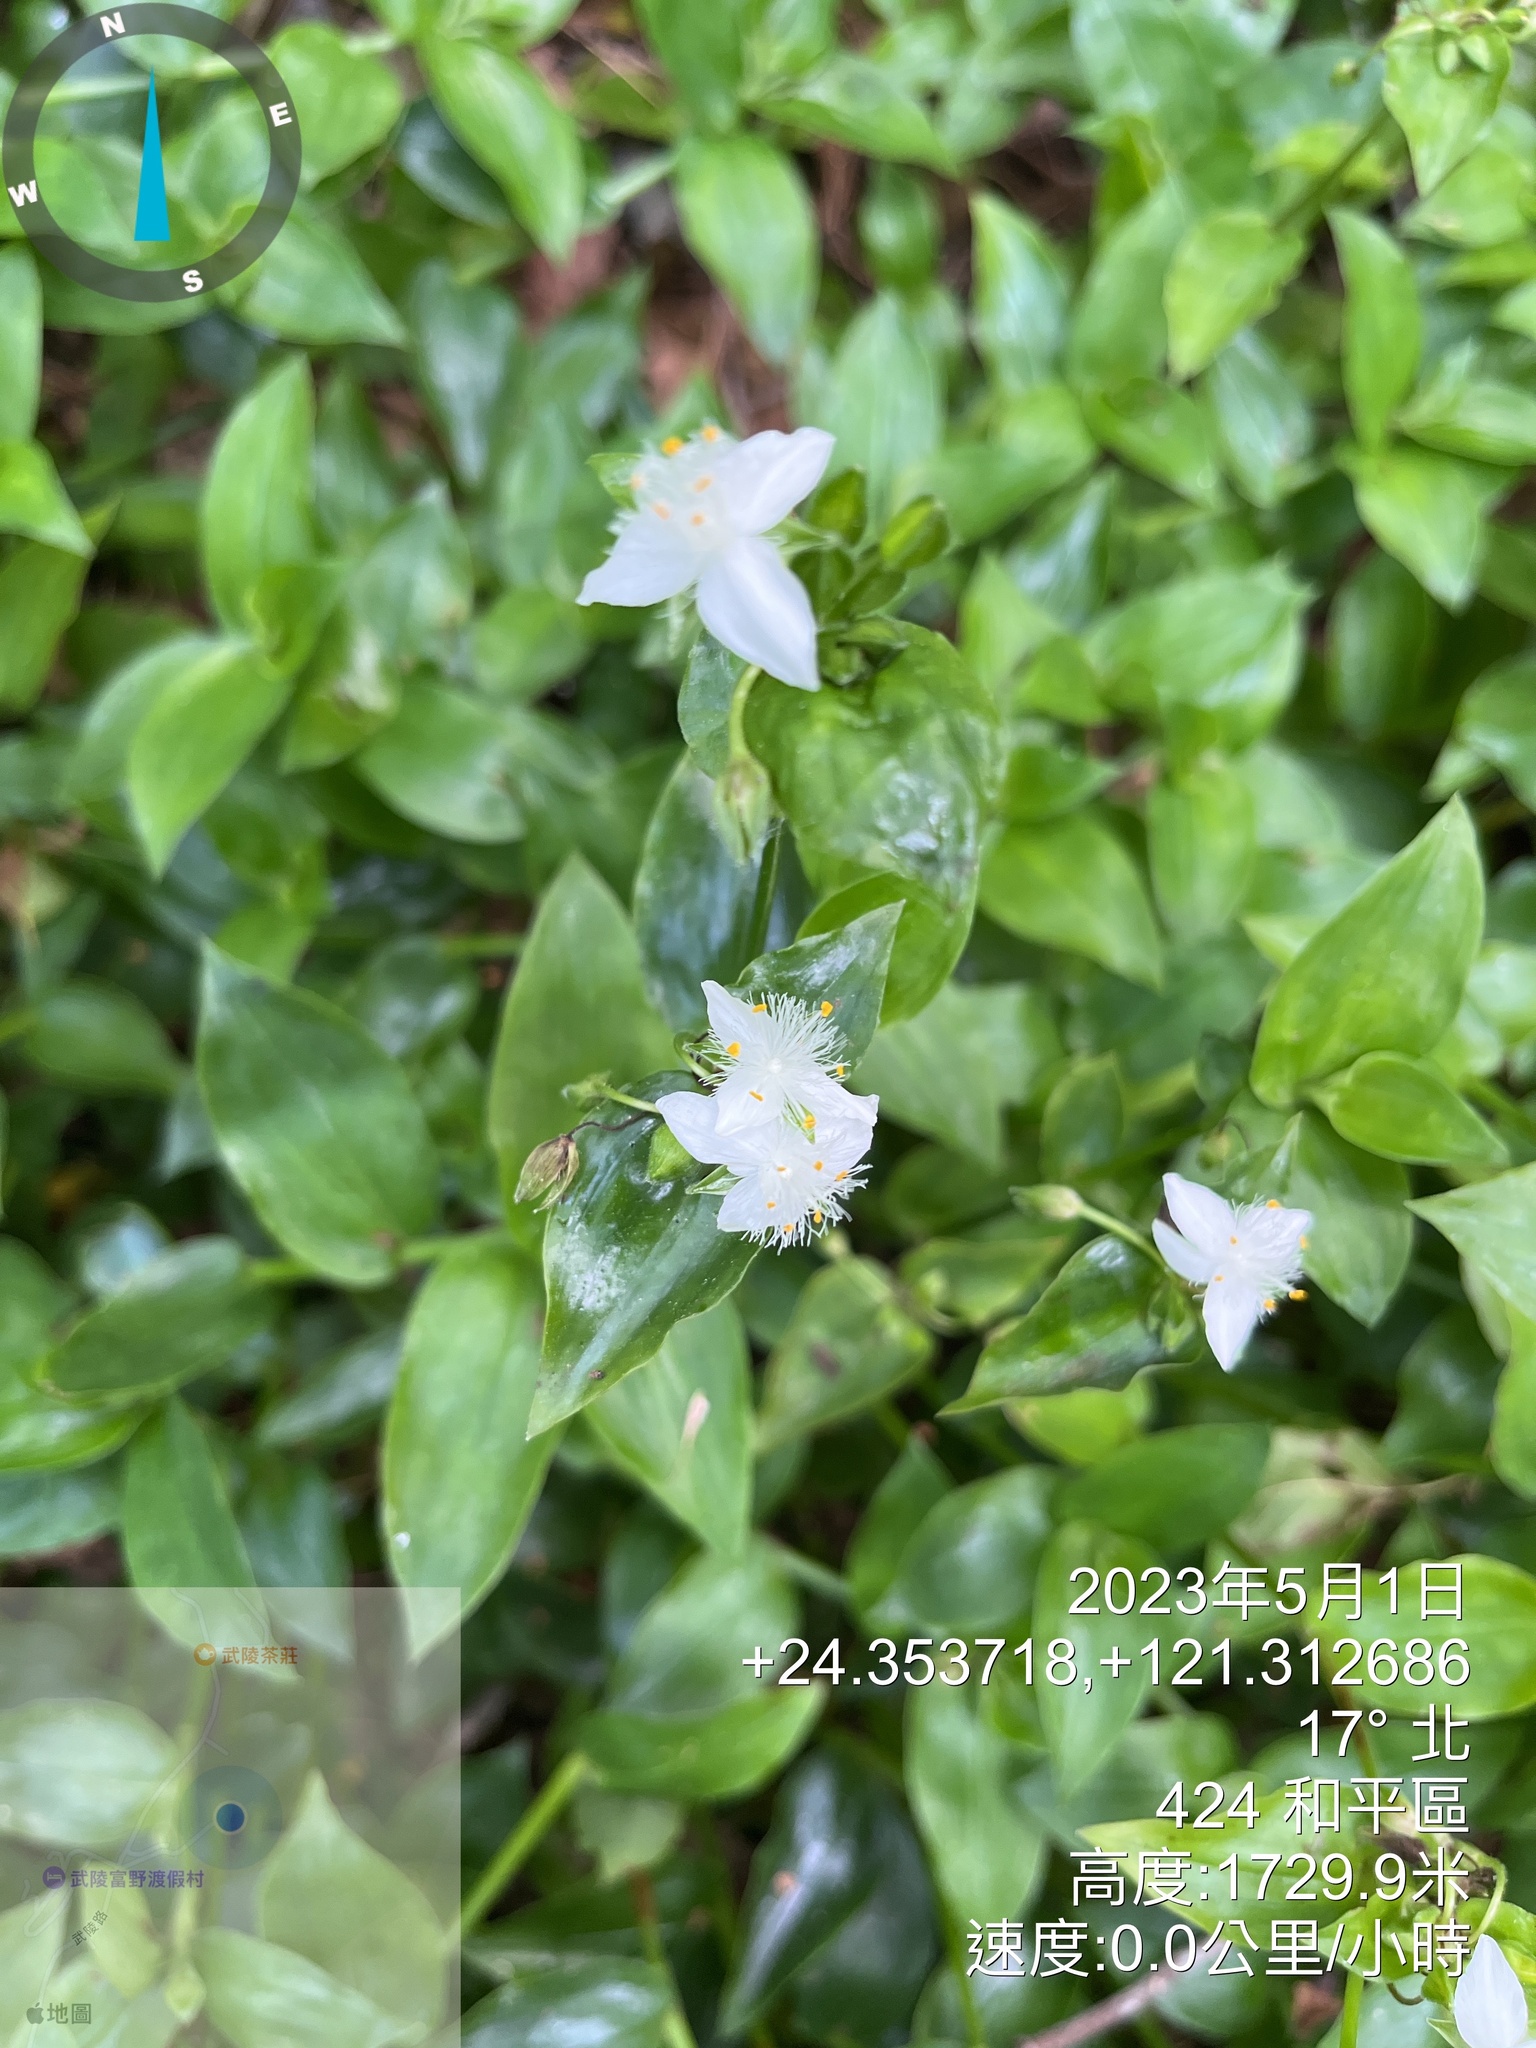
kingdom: Plantae
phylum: Tracheophyta
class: Liliopsida
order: Commelinales
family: Commelinaceae
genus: Tradescantia
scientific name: Tradescantia fluminensis
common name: Wandering-jew
